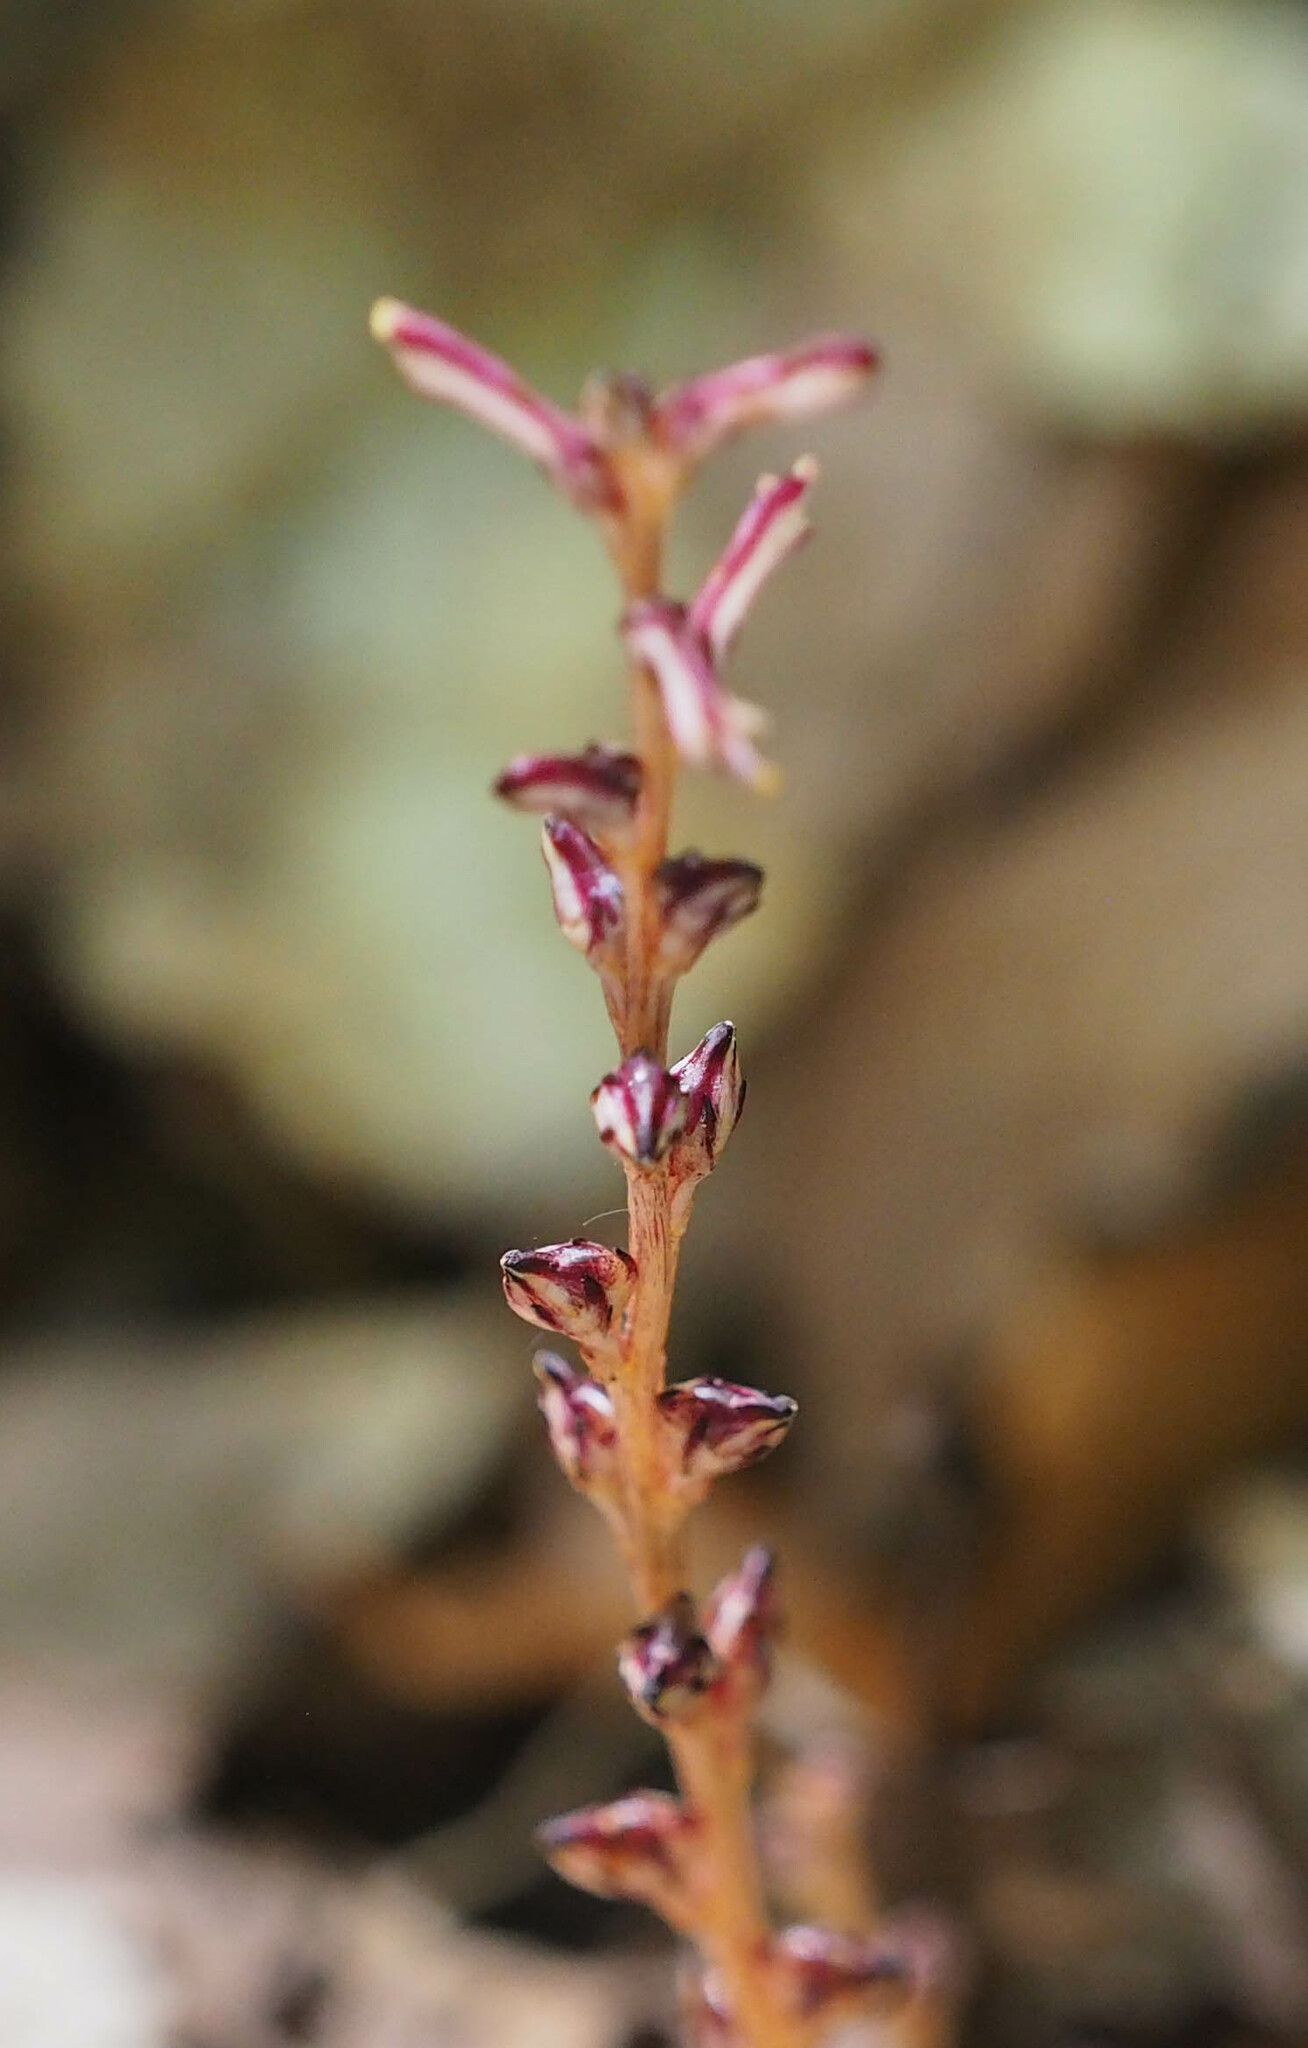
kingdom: Plantae
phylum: Tracheophyta
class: Magnoliopsida
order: Lamiales
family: Orobanchaceae
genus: Epifagus
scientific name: Epifagus virginiana
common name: Beechdrops
